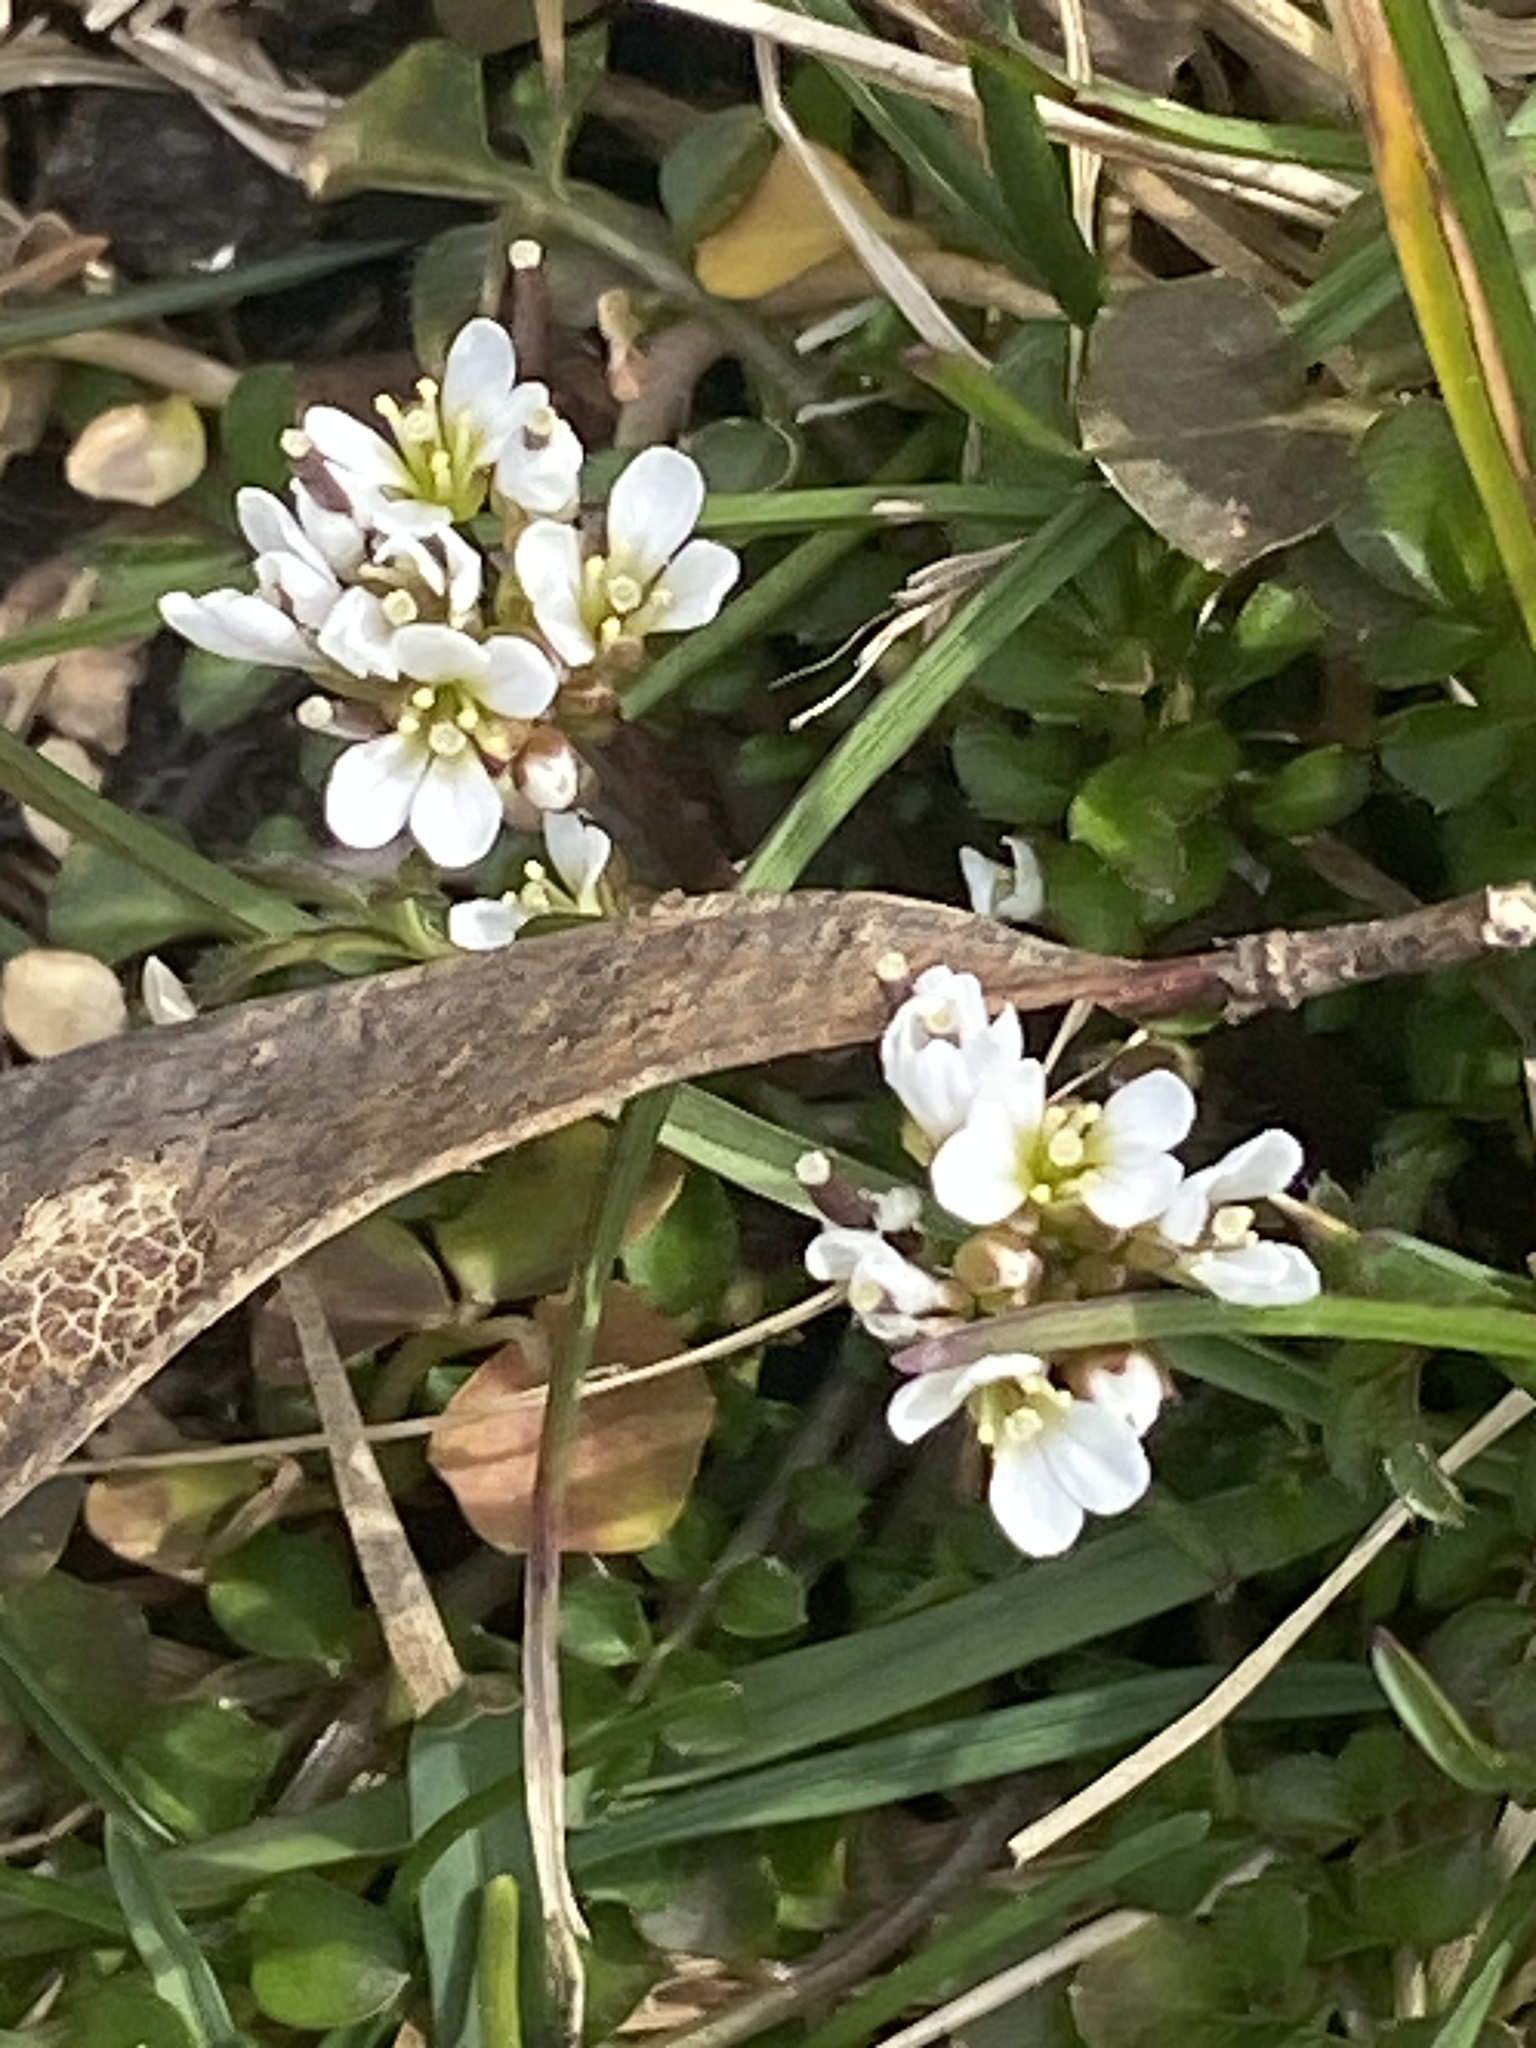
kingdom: Plantae
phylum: Tracheophyta
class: Magnoliopsida
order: Brassicales
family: Brassicaceae
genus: Cardamine
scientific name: Cardamine hirsuta
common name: Hairy bittercress
